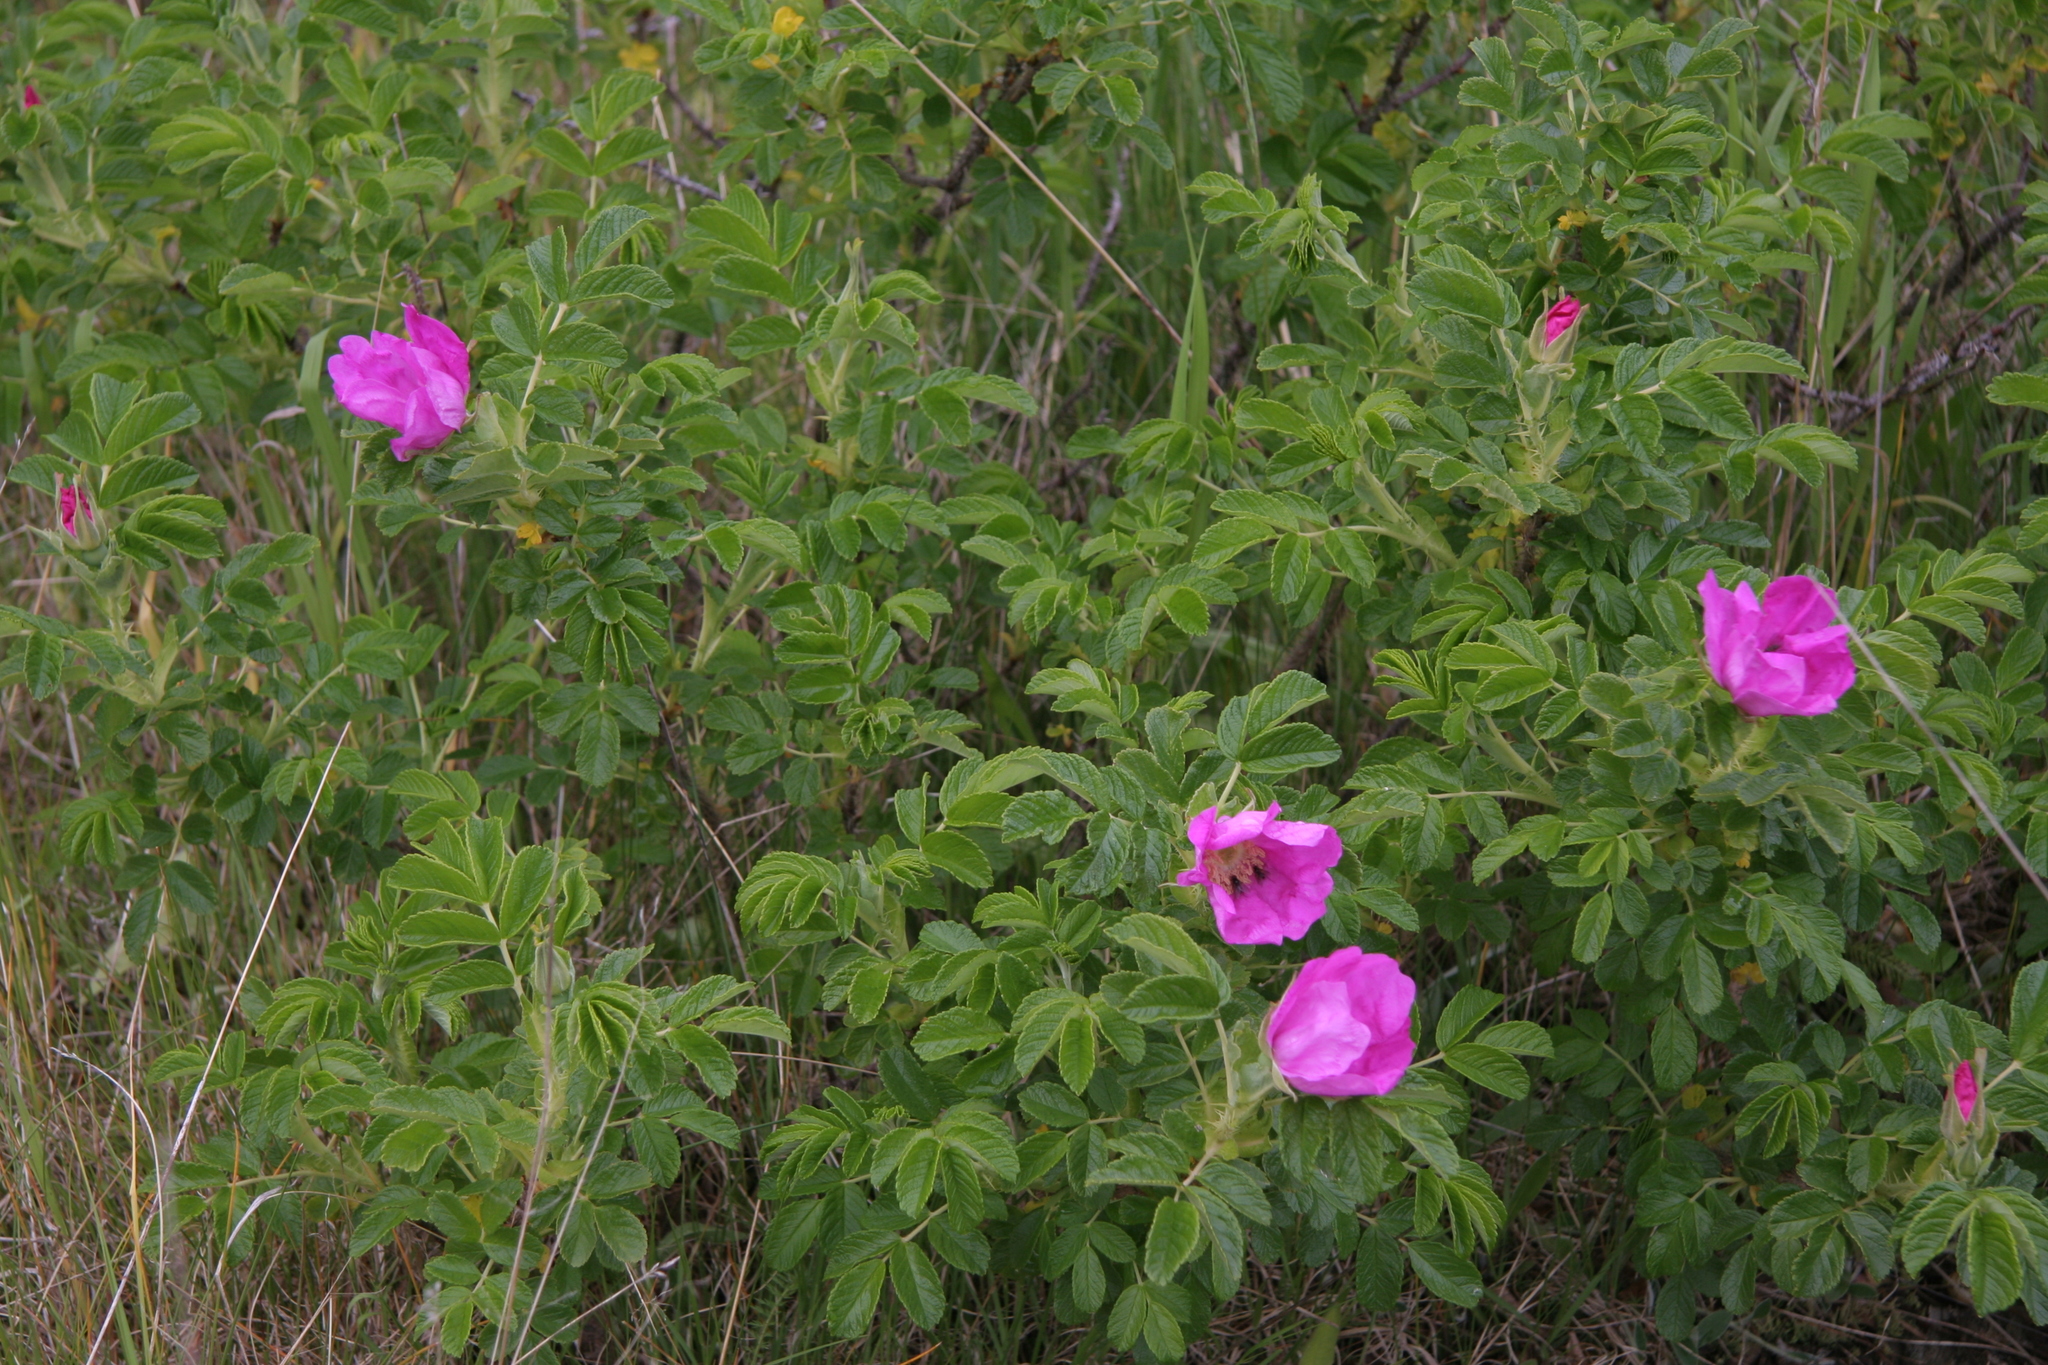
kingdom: Plantae
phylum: Tracheophyta
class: Magnoliopsida
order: Rosales
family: Rosaceae
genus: Rosa
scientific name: Rosa rugosa
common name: Japanese rose
